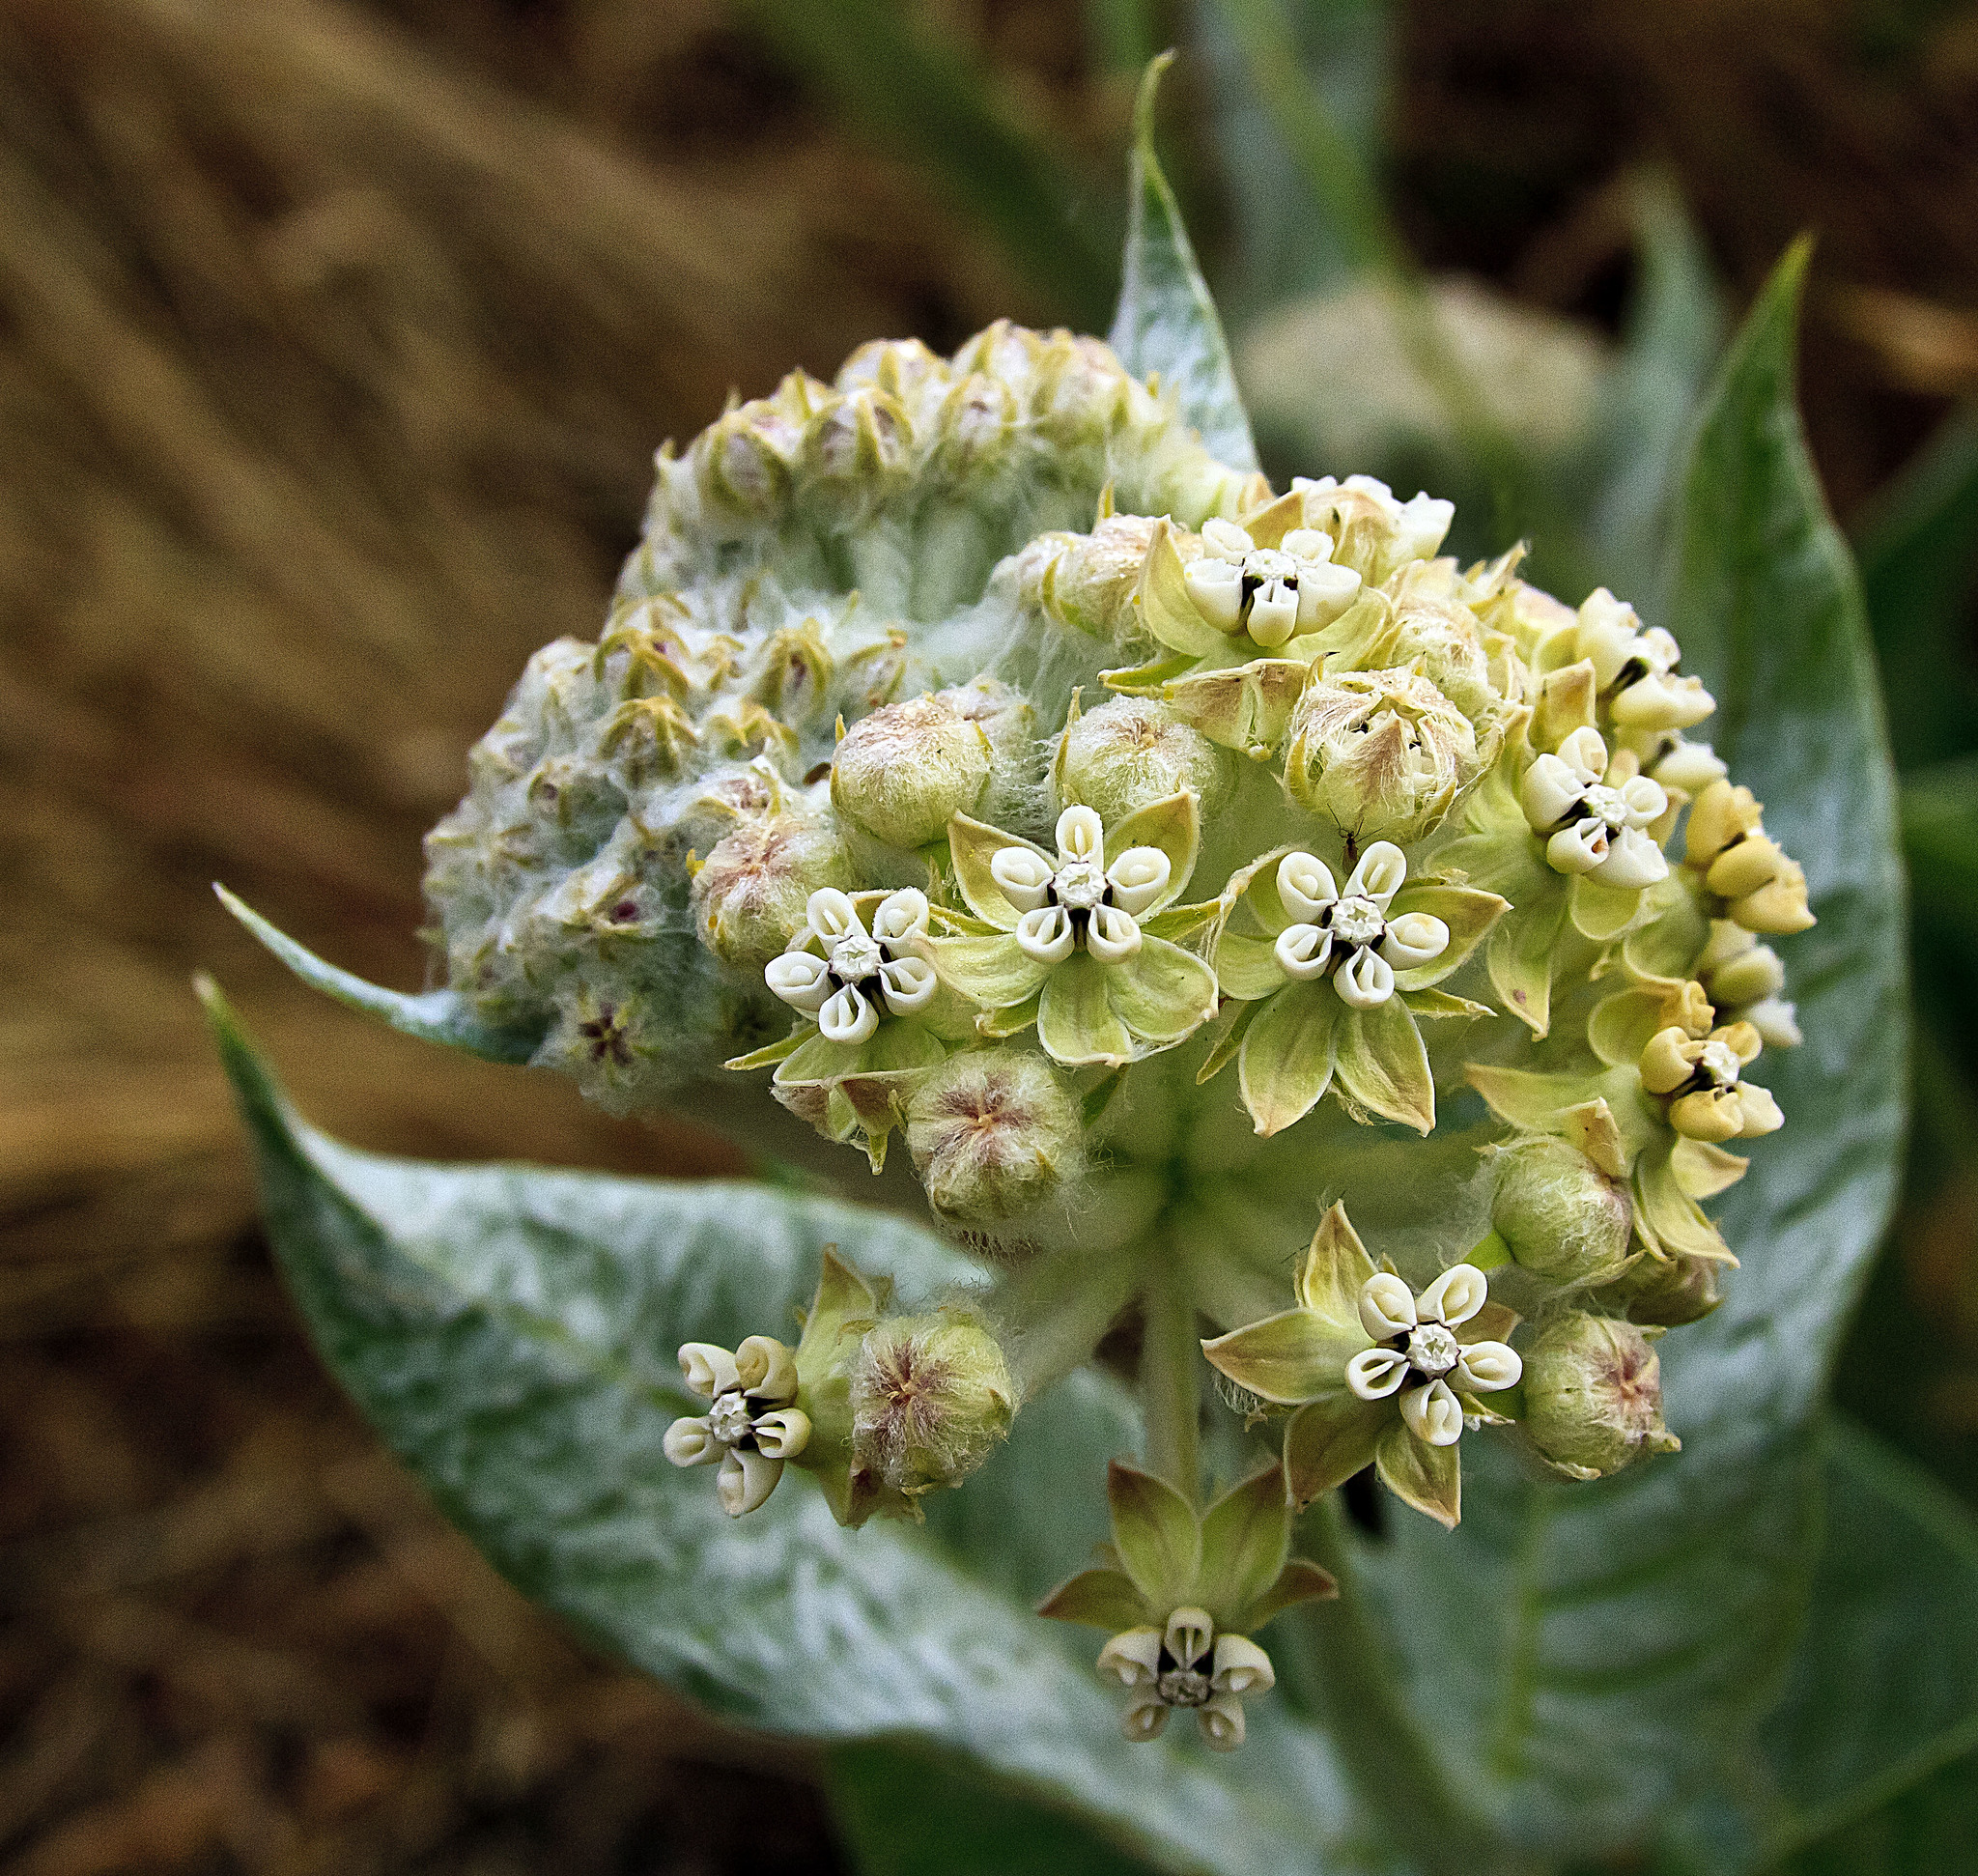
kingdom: Plantae
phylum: Tracheophyta
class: Magnoliopsida
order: Gentianales
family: Apocynaceae
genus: Asclepias
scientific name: Asclepias vestita
